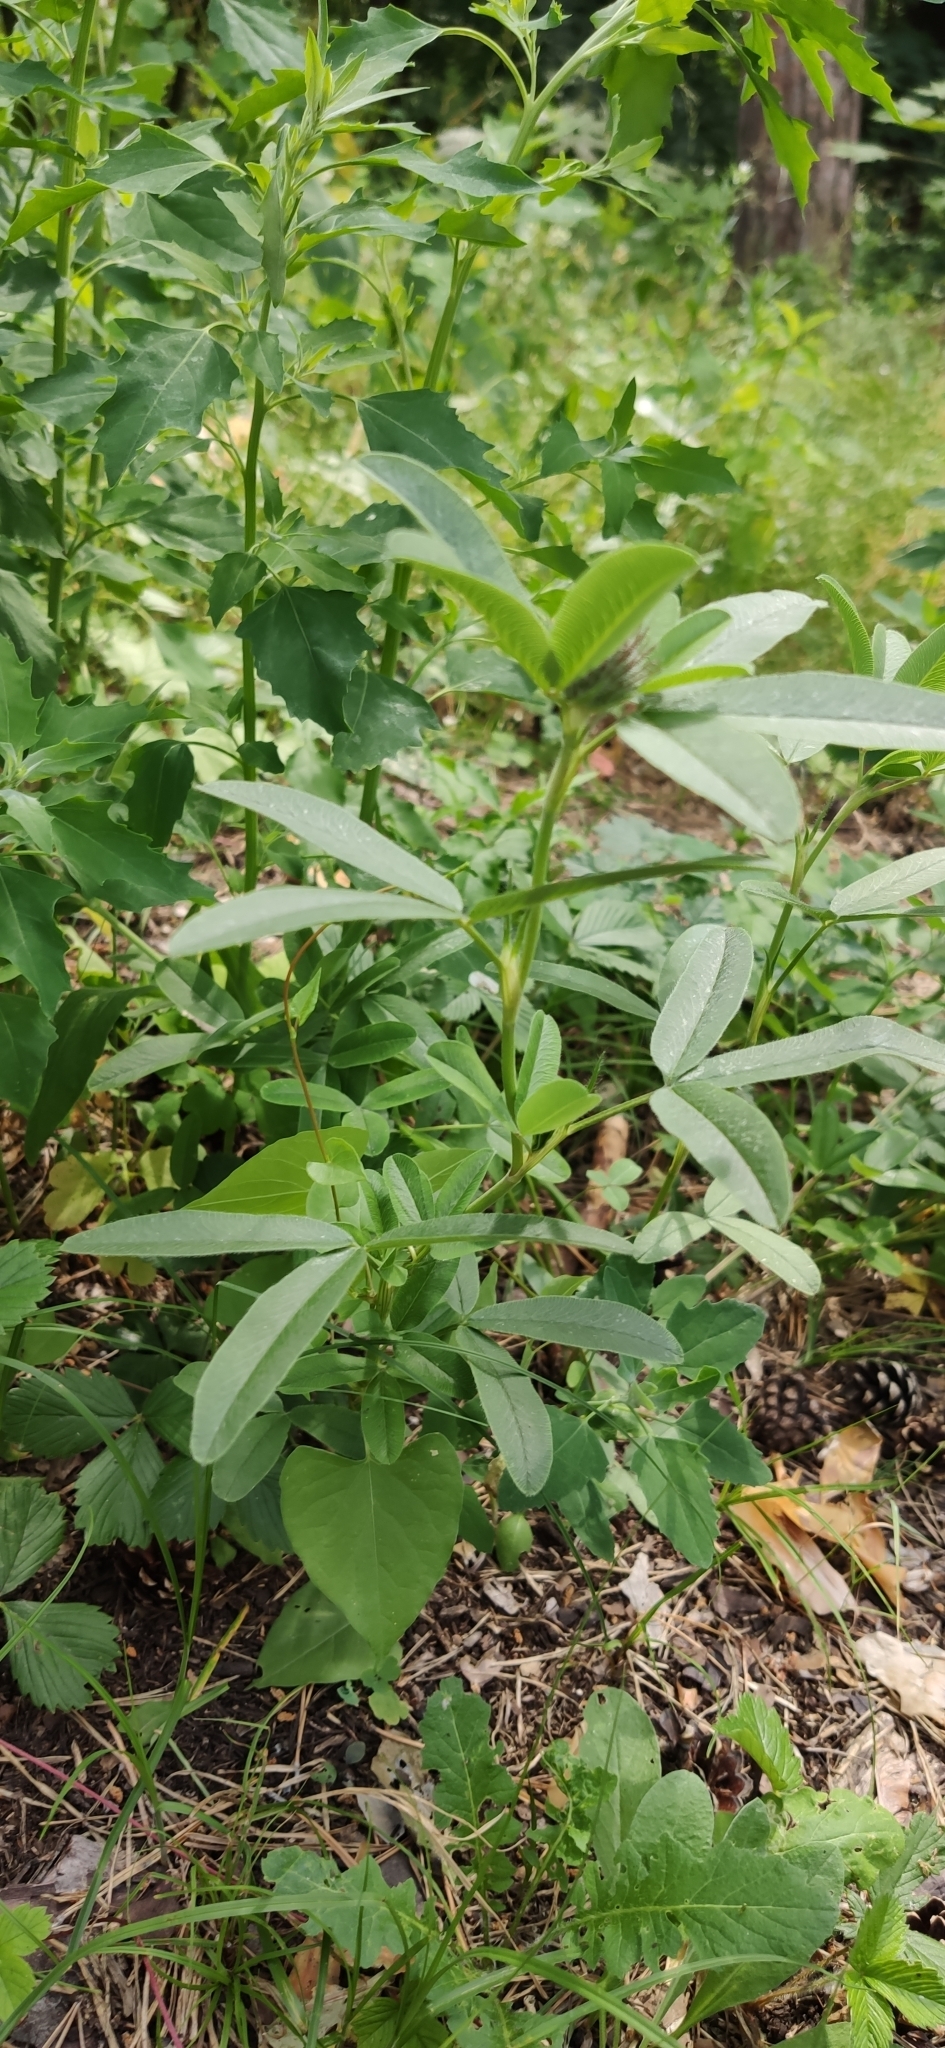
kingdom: Plantae
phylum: Tracheophyta
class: Magnoliopsida
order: Fabales
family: Fabaceae
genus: Trifolium
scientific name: Trifolium medium
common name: Zigzag clover
